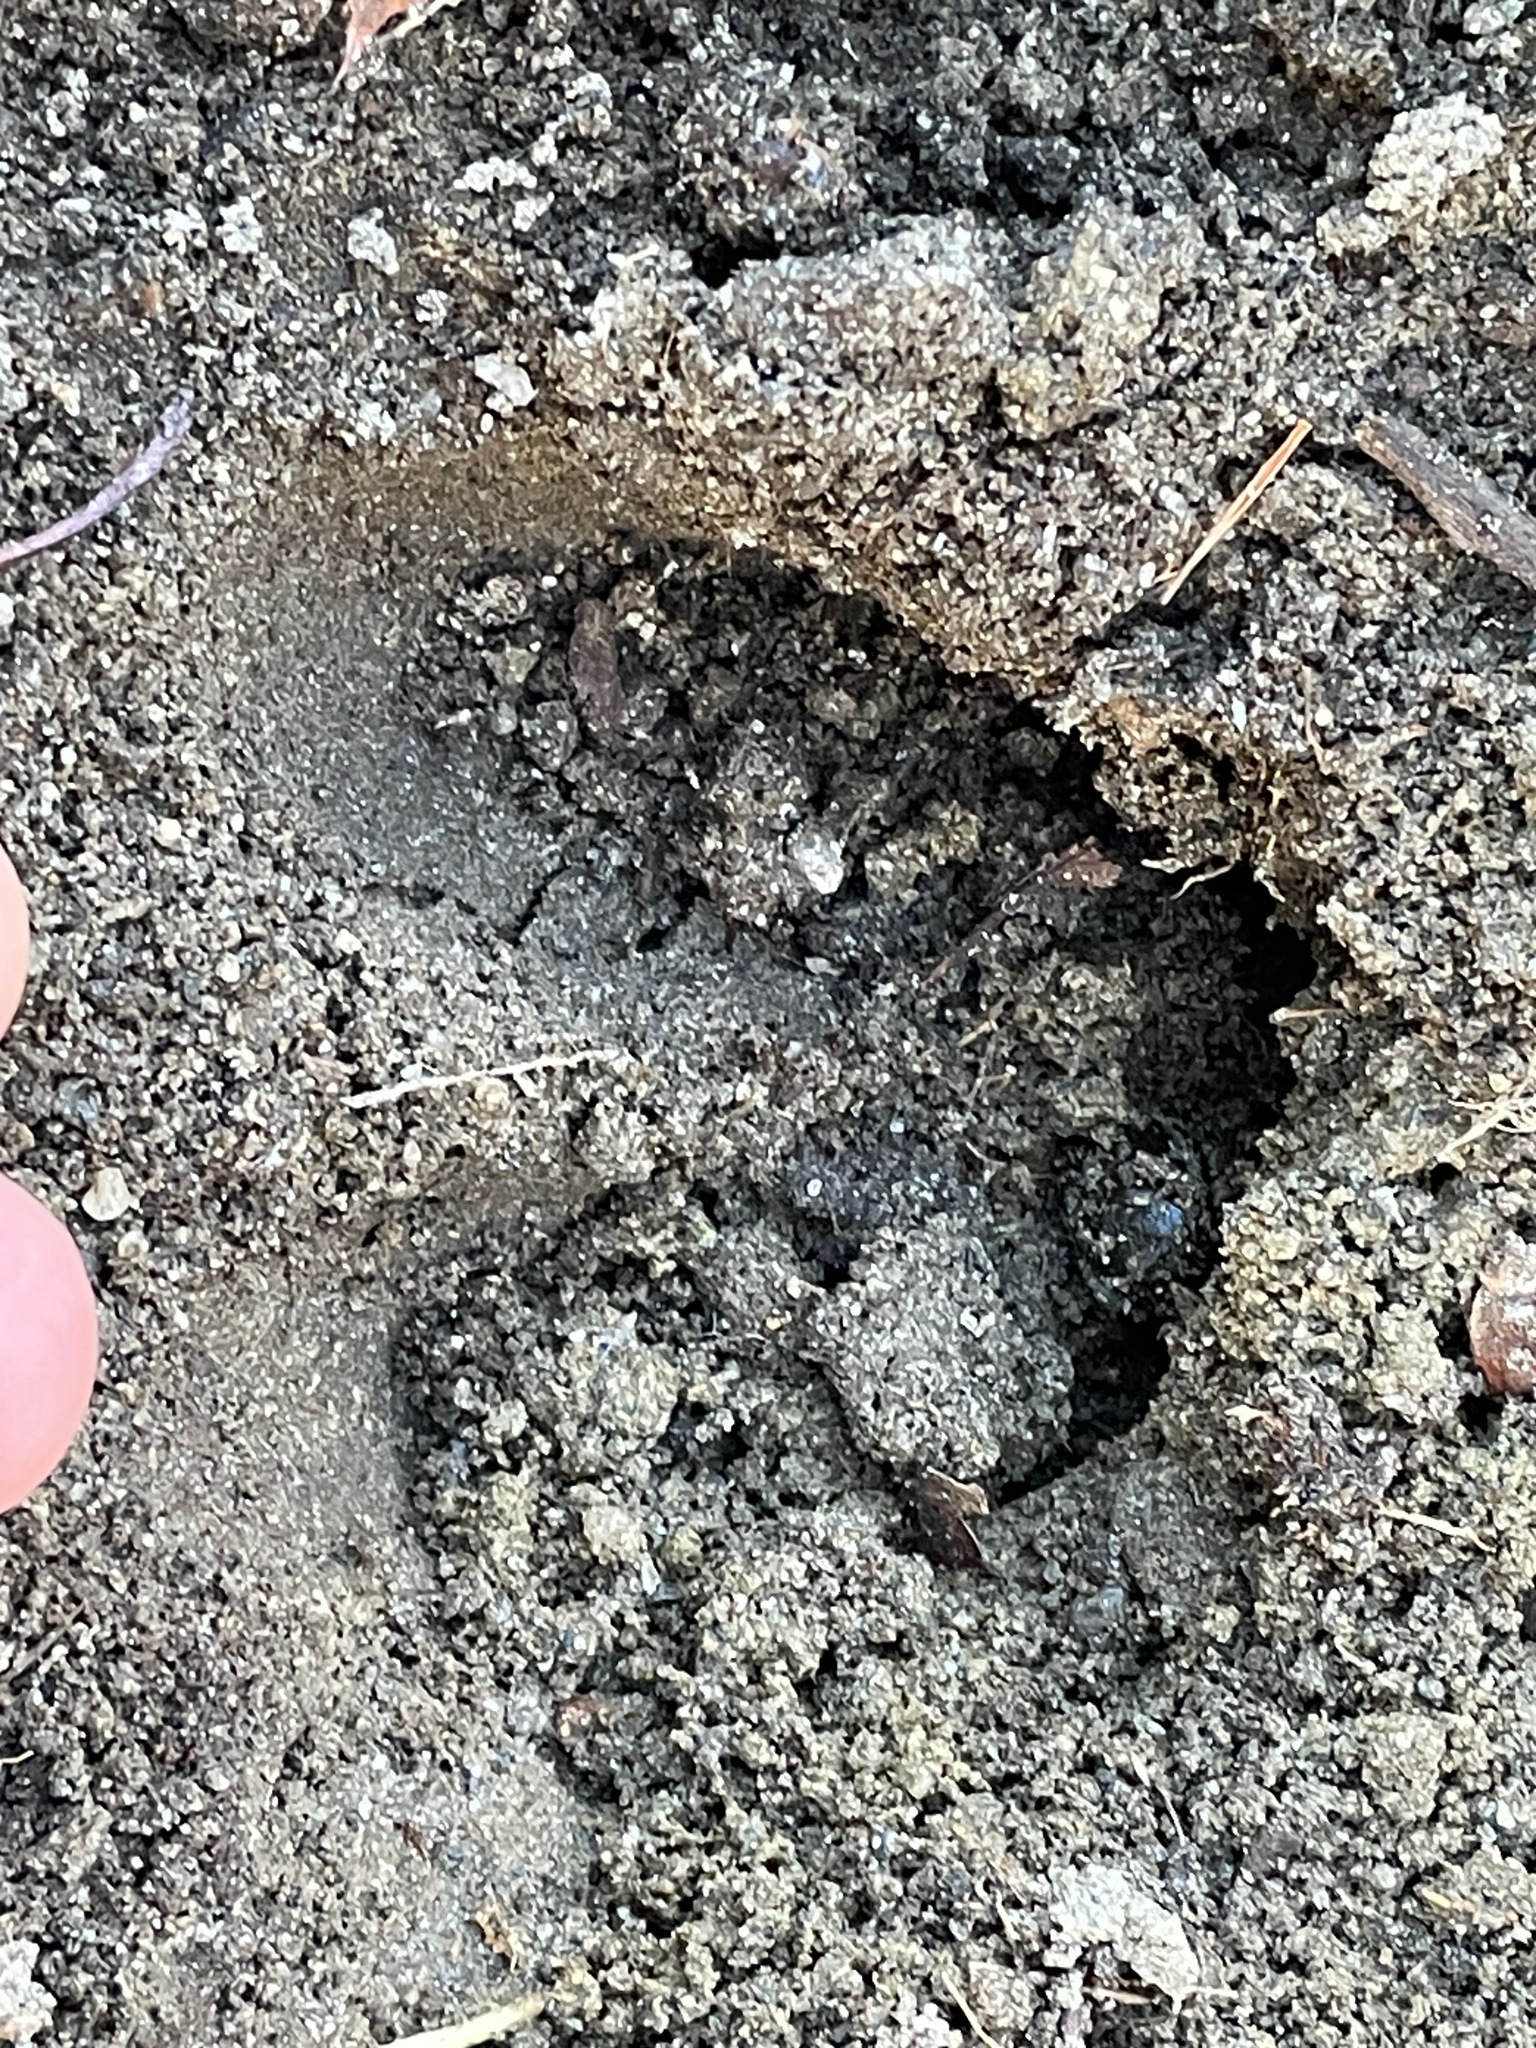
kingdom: Animalia
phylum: Chordata
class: Mammalia
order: Artiodactyla
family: Cervidae
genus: Odocoileus
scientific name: Odocoileus virginianus
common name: White-tailed deer
